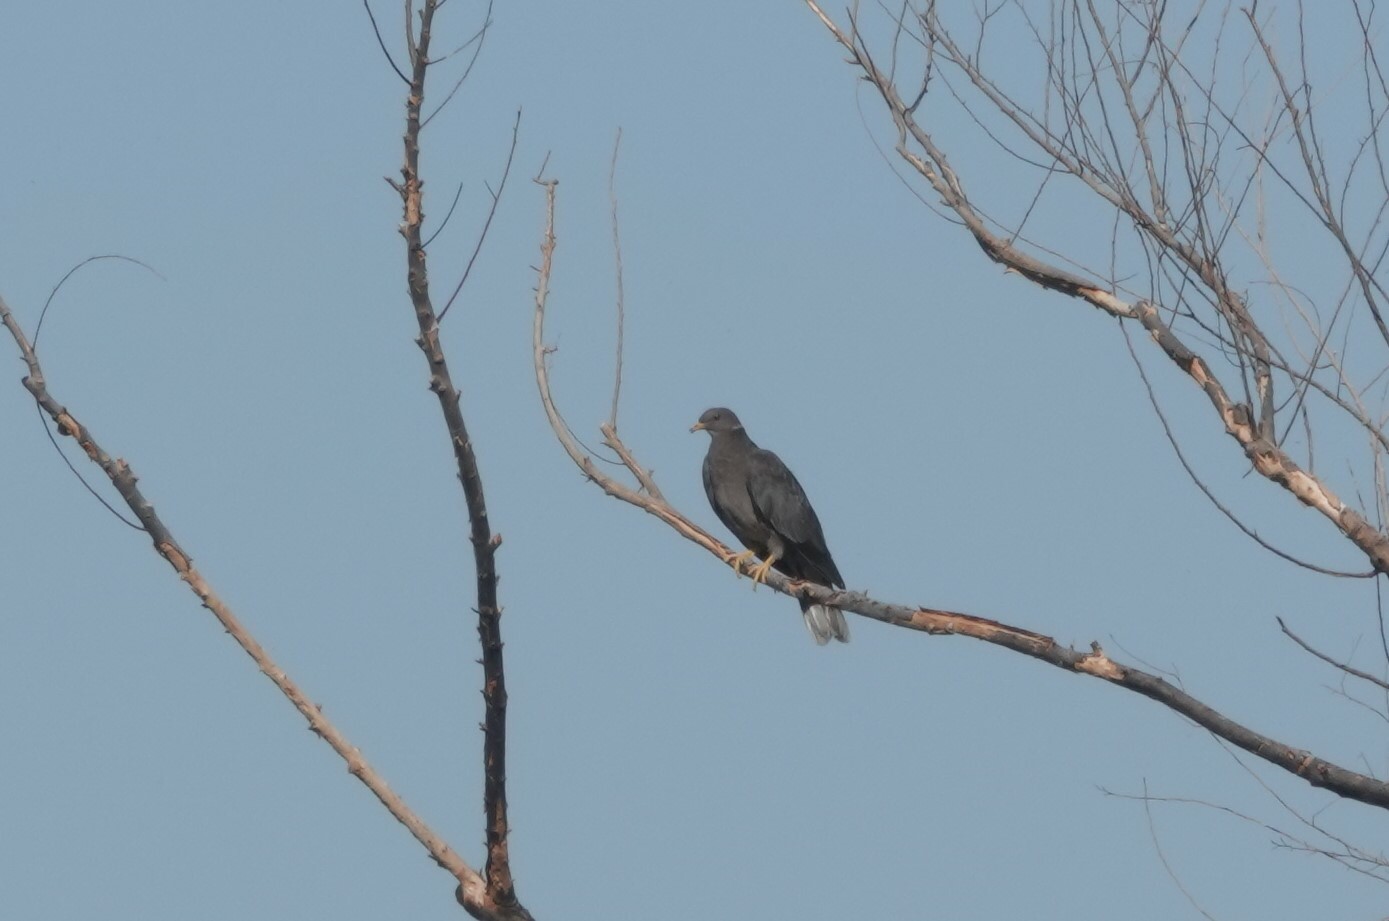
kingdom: Animalia
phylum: Chordata
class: Aves
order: Columbiformes
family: Columbidae
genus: Patagioenas
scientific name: Patagioenas fasciata
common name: Band-tailed pigeon
